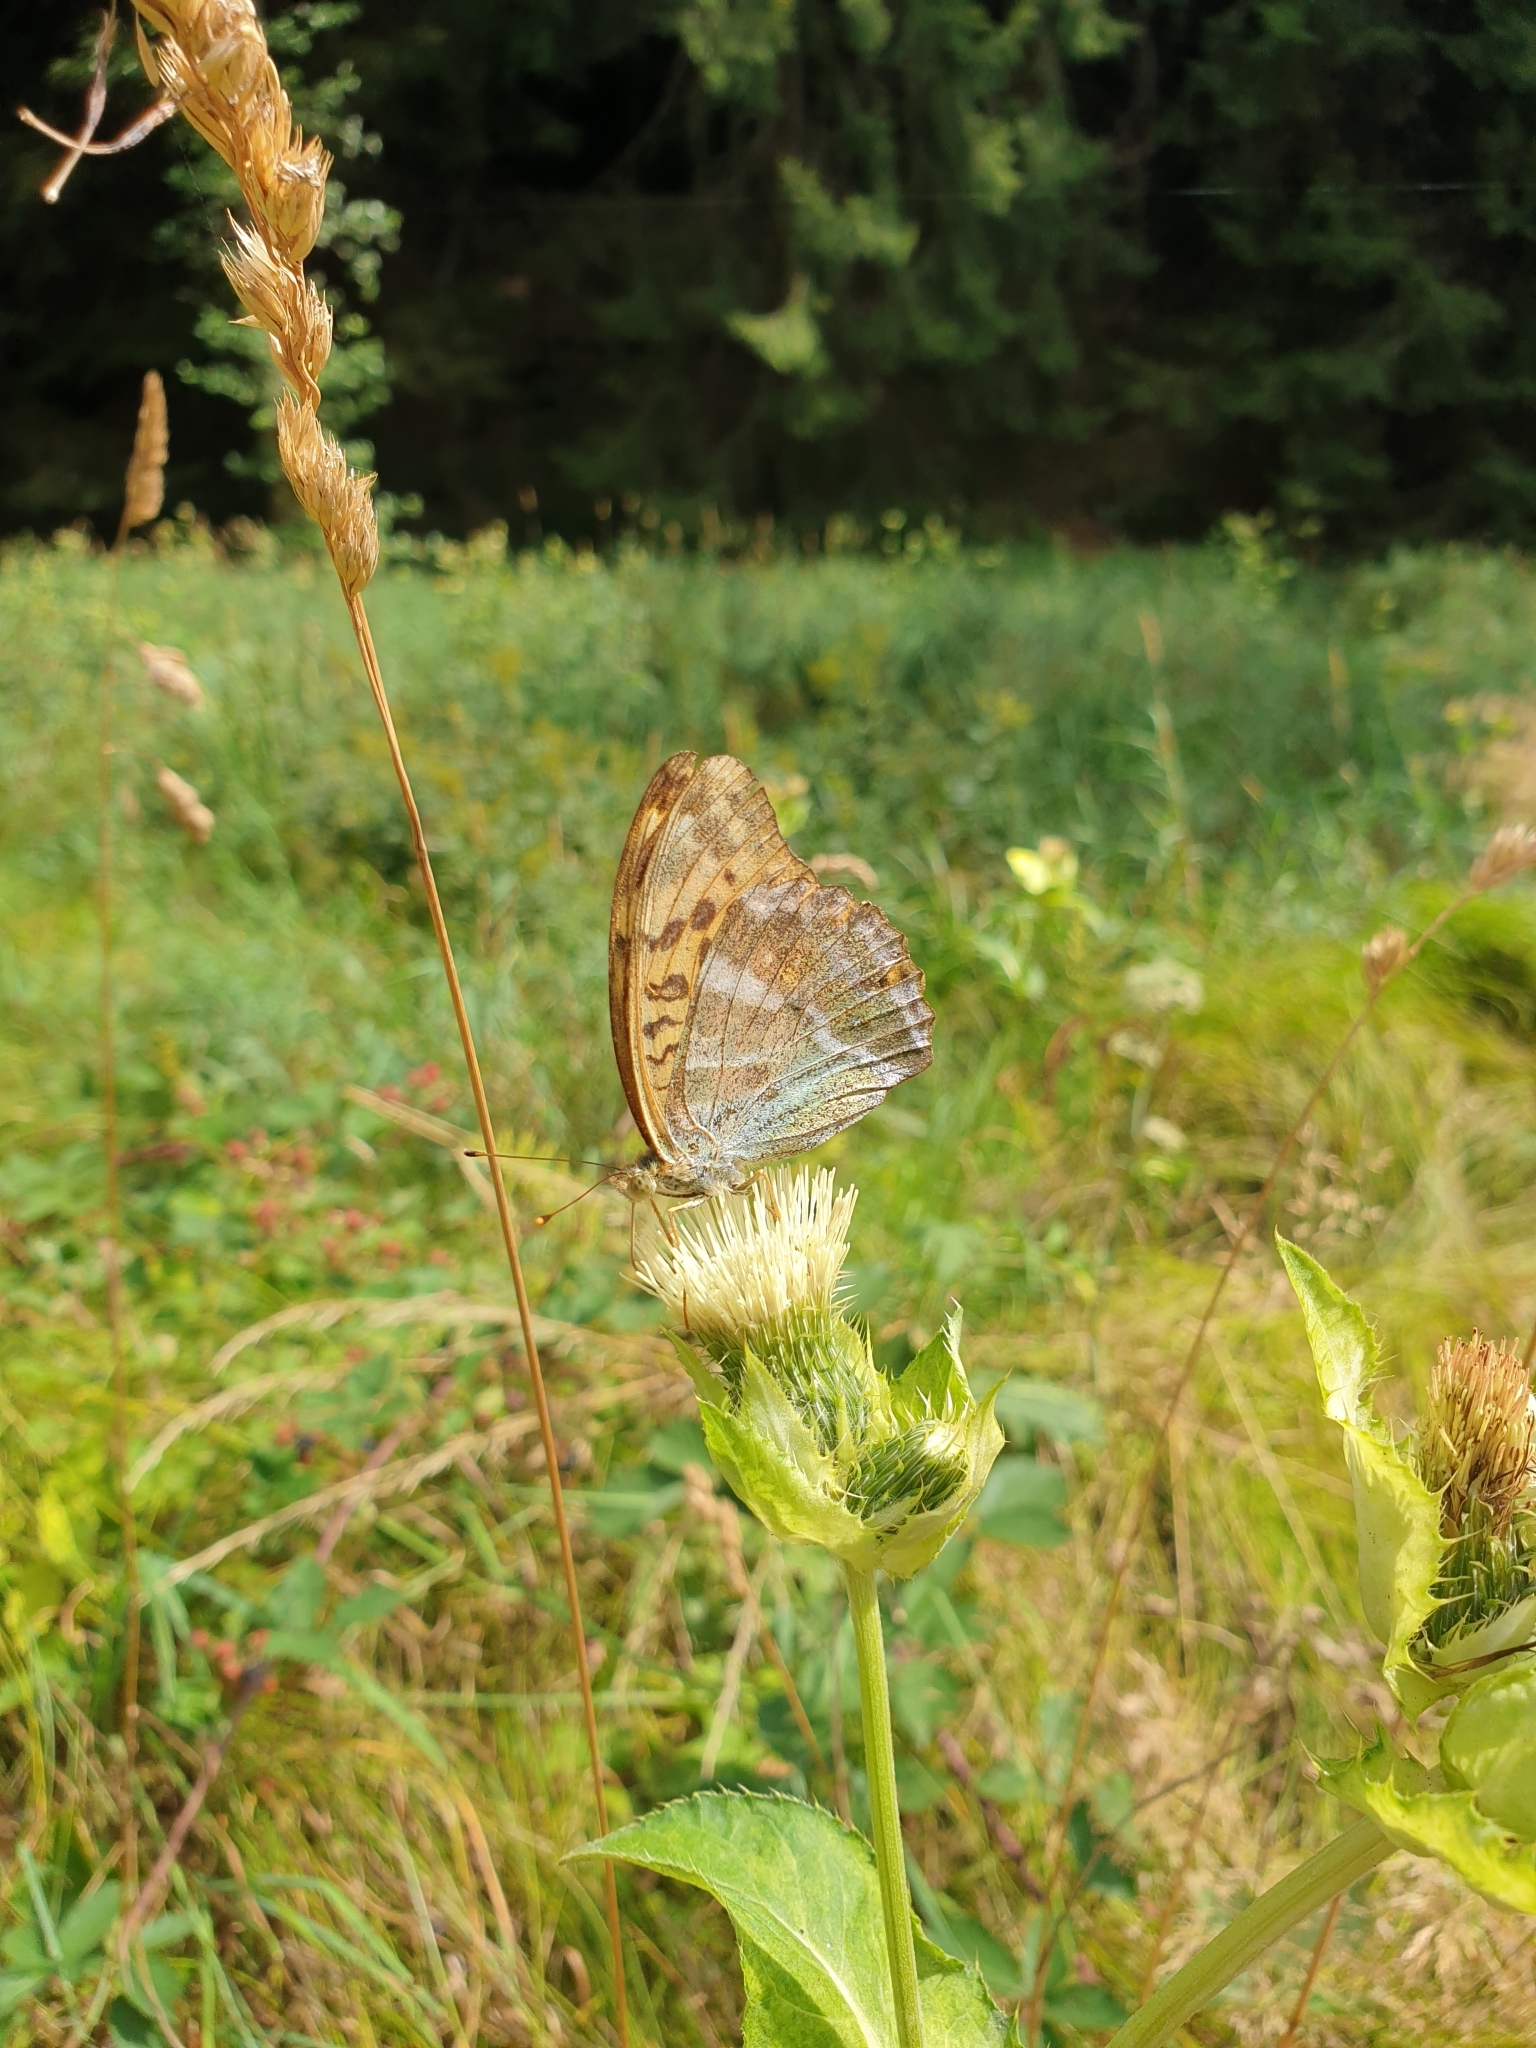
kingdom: Animalia
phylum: Arthropoda
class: Insecta
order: Lepidoptera
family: Nymphalidae
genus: Argynnis
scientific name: Argynnis paphia
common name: Silver-washed fritillary
